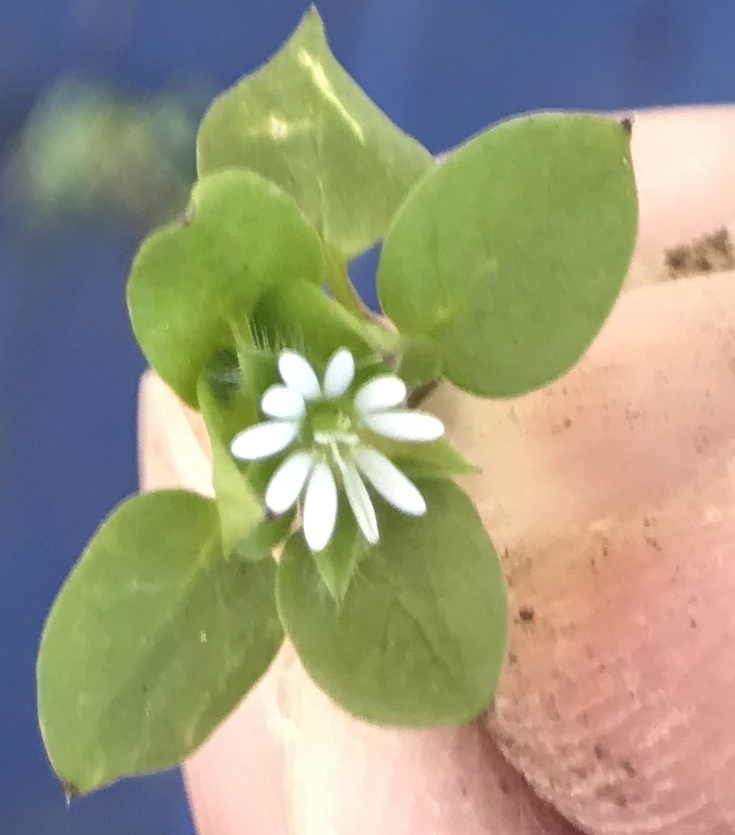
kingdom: Plantae
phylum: Tracheophyta
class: Magnoliopsida
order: Caryophyllales
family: Caryophyllaceae
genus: Stellaria
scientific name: Stellaria media
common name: Common chickweed
